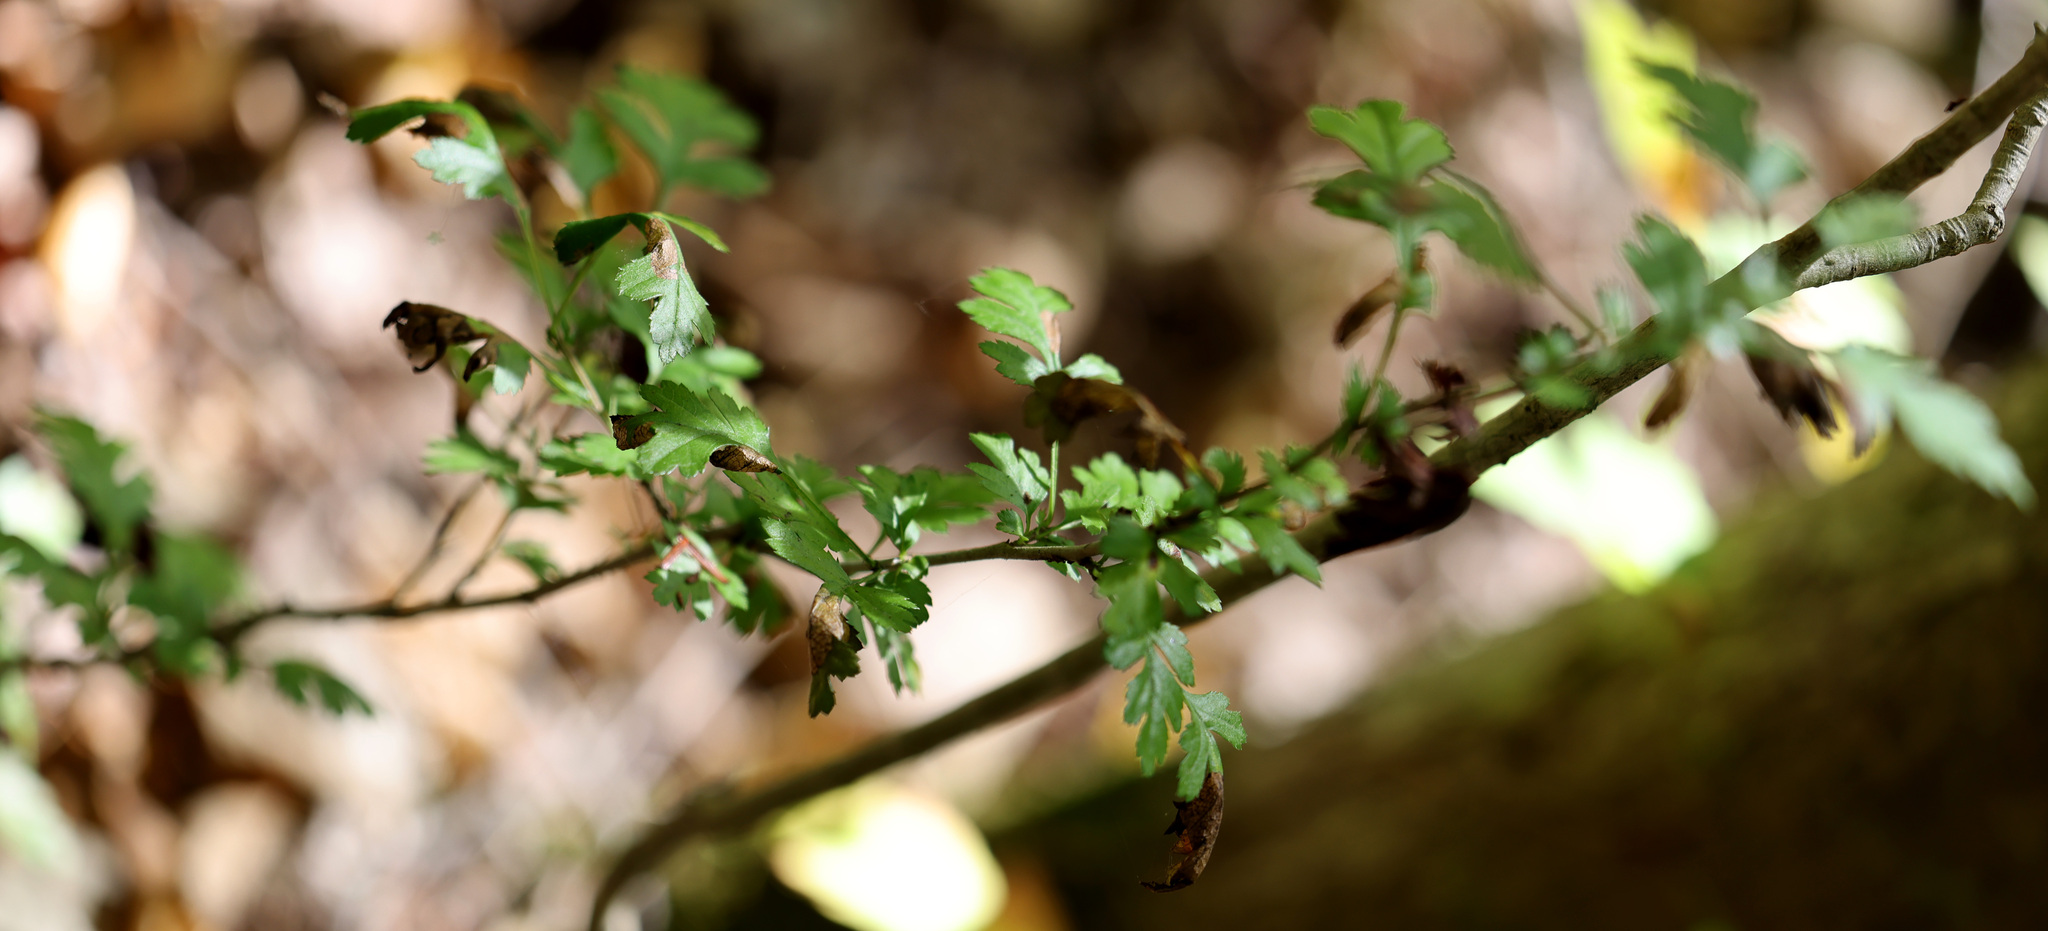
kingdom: Plantae
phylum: Tracheophyta
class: Magnoliopsida
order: Rosales
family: Rosaceae
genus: Crataegus
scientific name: Crataegus monogyna
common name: Hawthorn
